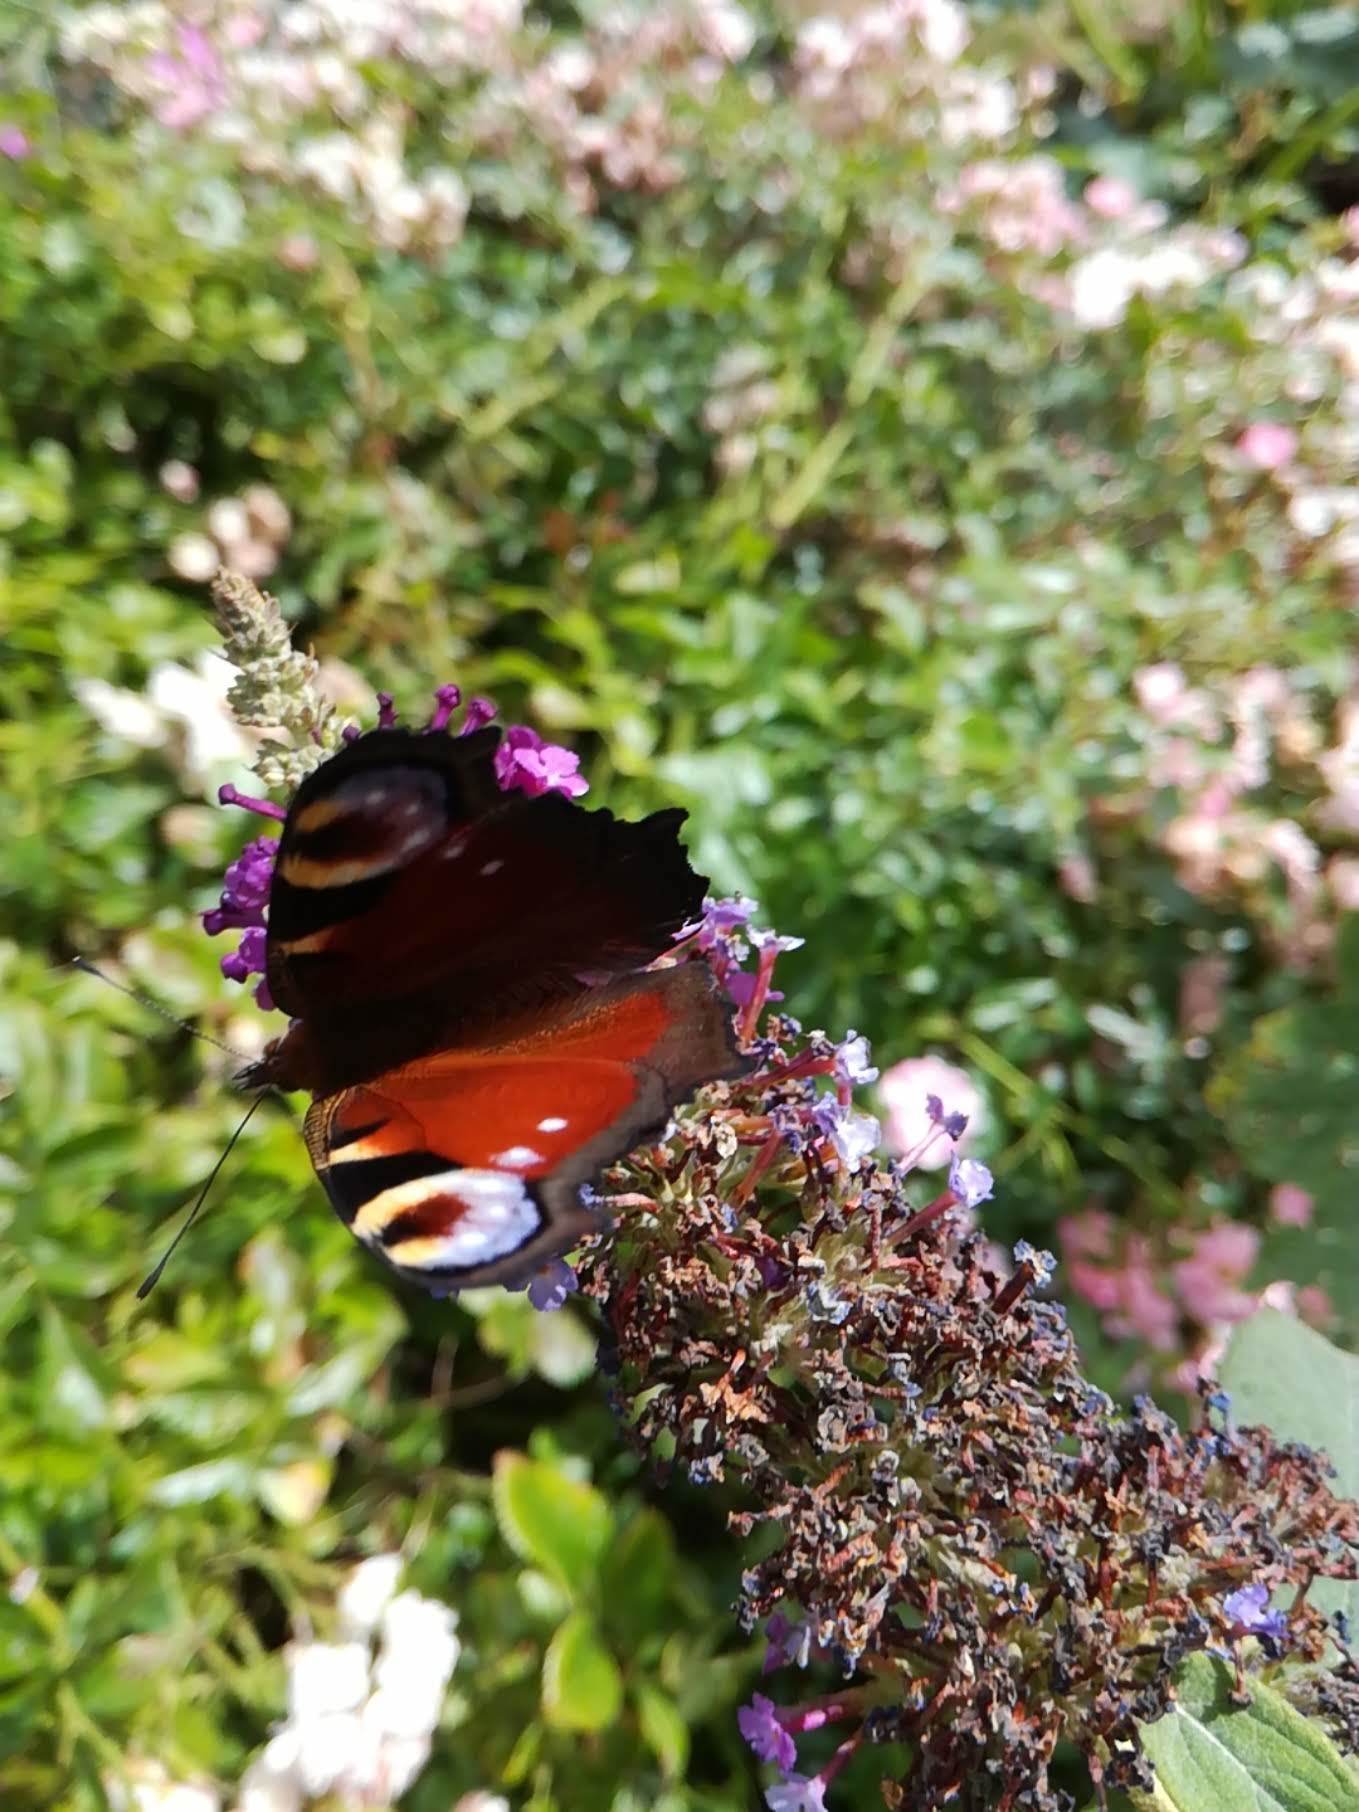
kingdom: Animalia
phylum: Arthropoda
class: Insecta
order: Lepidoptera
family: Nymphalidae
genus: Aglais
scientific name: Aglais io
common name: Peacock
